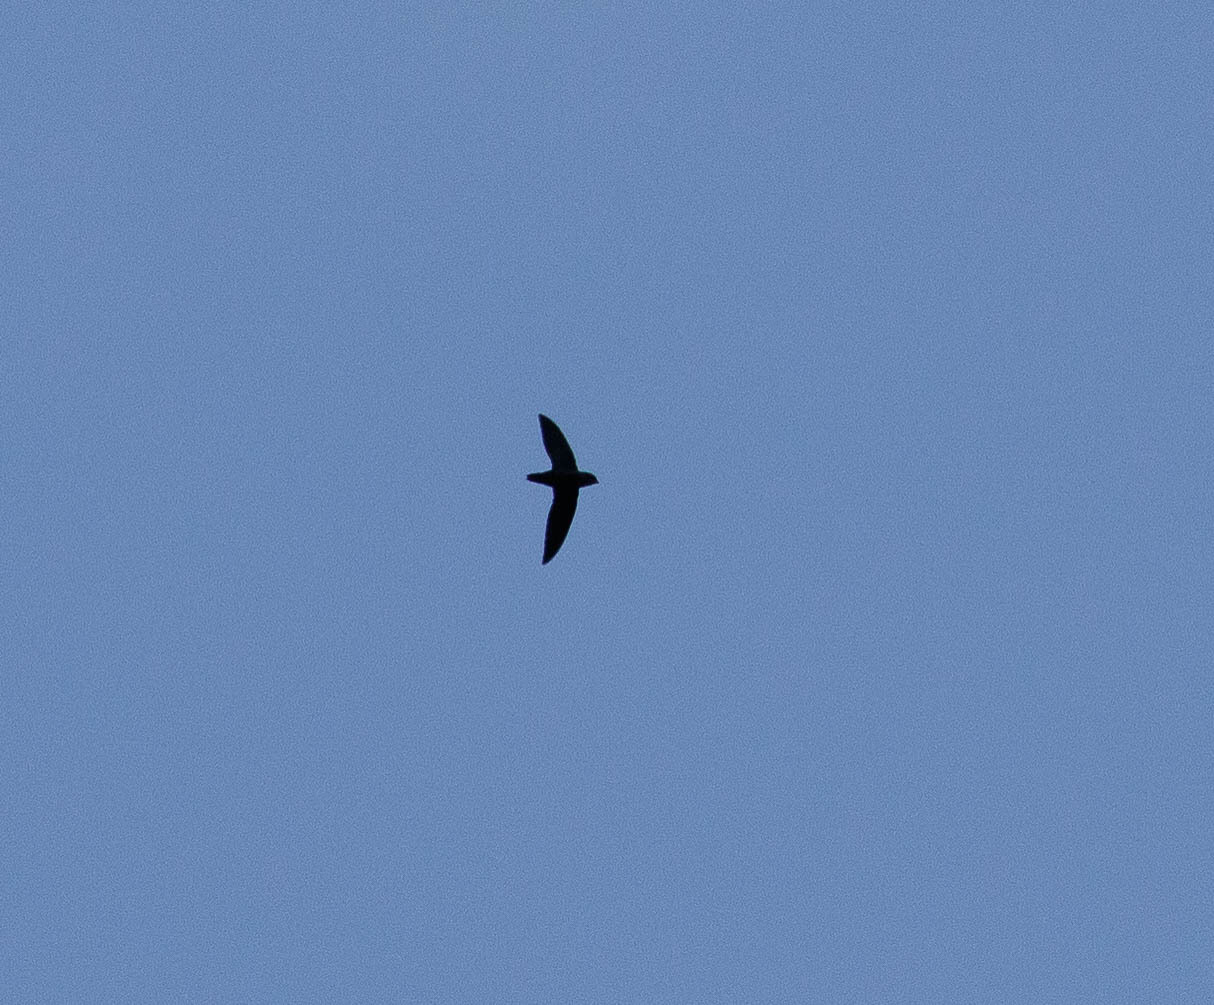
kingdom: Animalia
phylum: Chordata
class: Aves
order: Apodiformes
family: Apodidae
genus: Chaetura
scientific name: Chaetura pelagica
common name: Chimney swift
